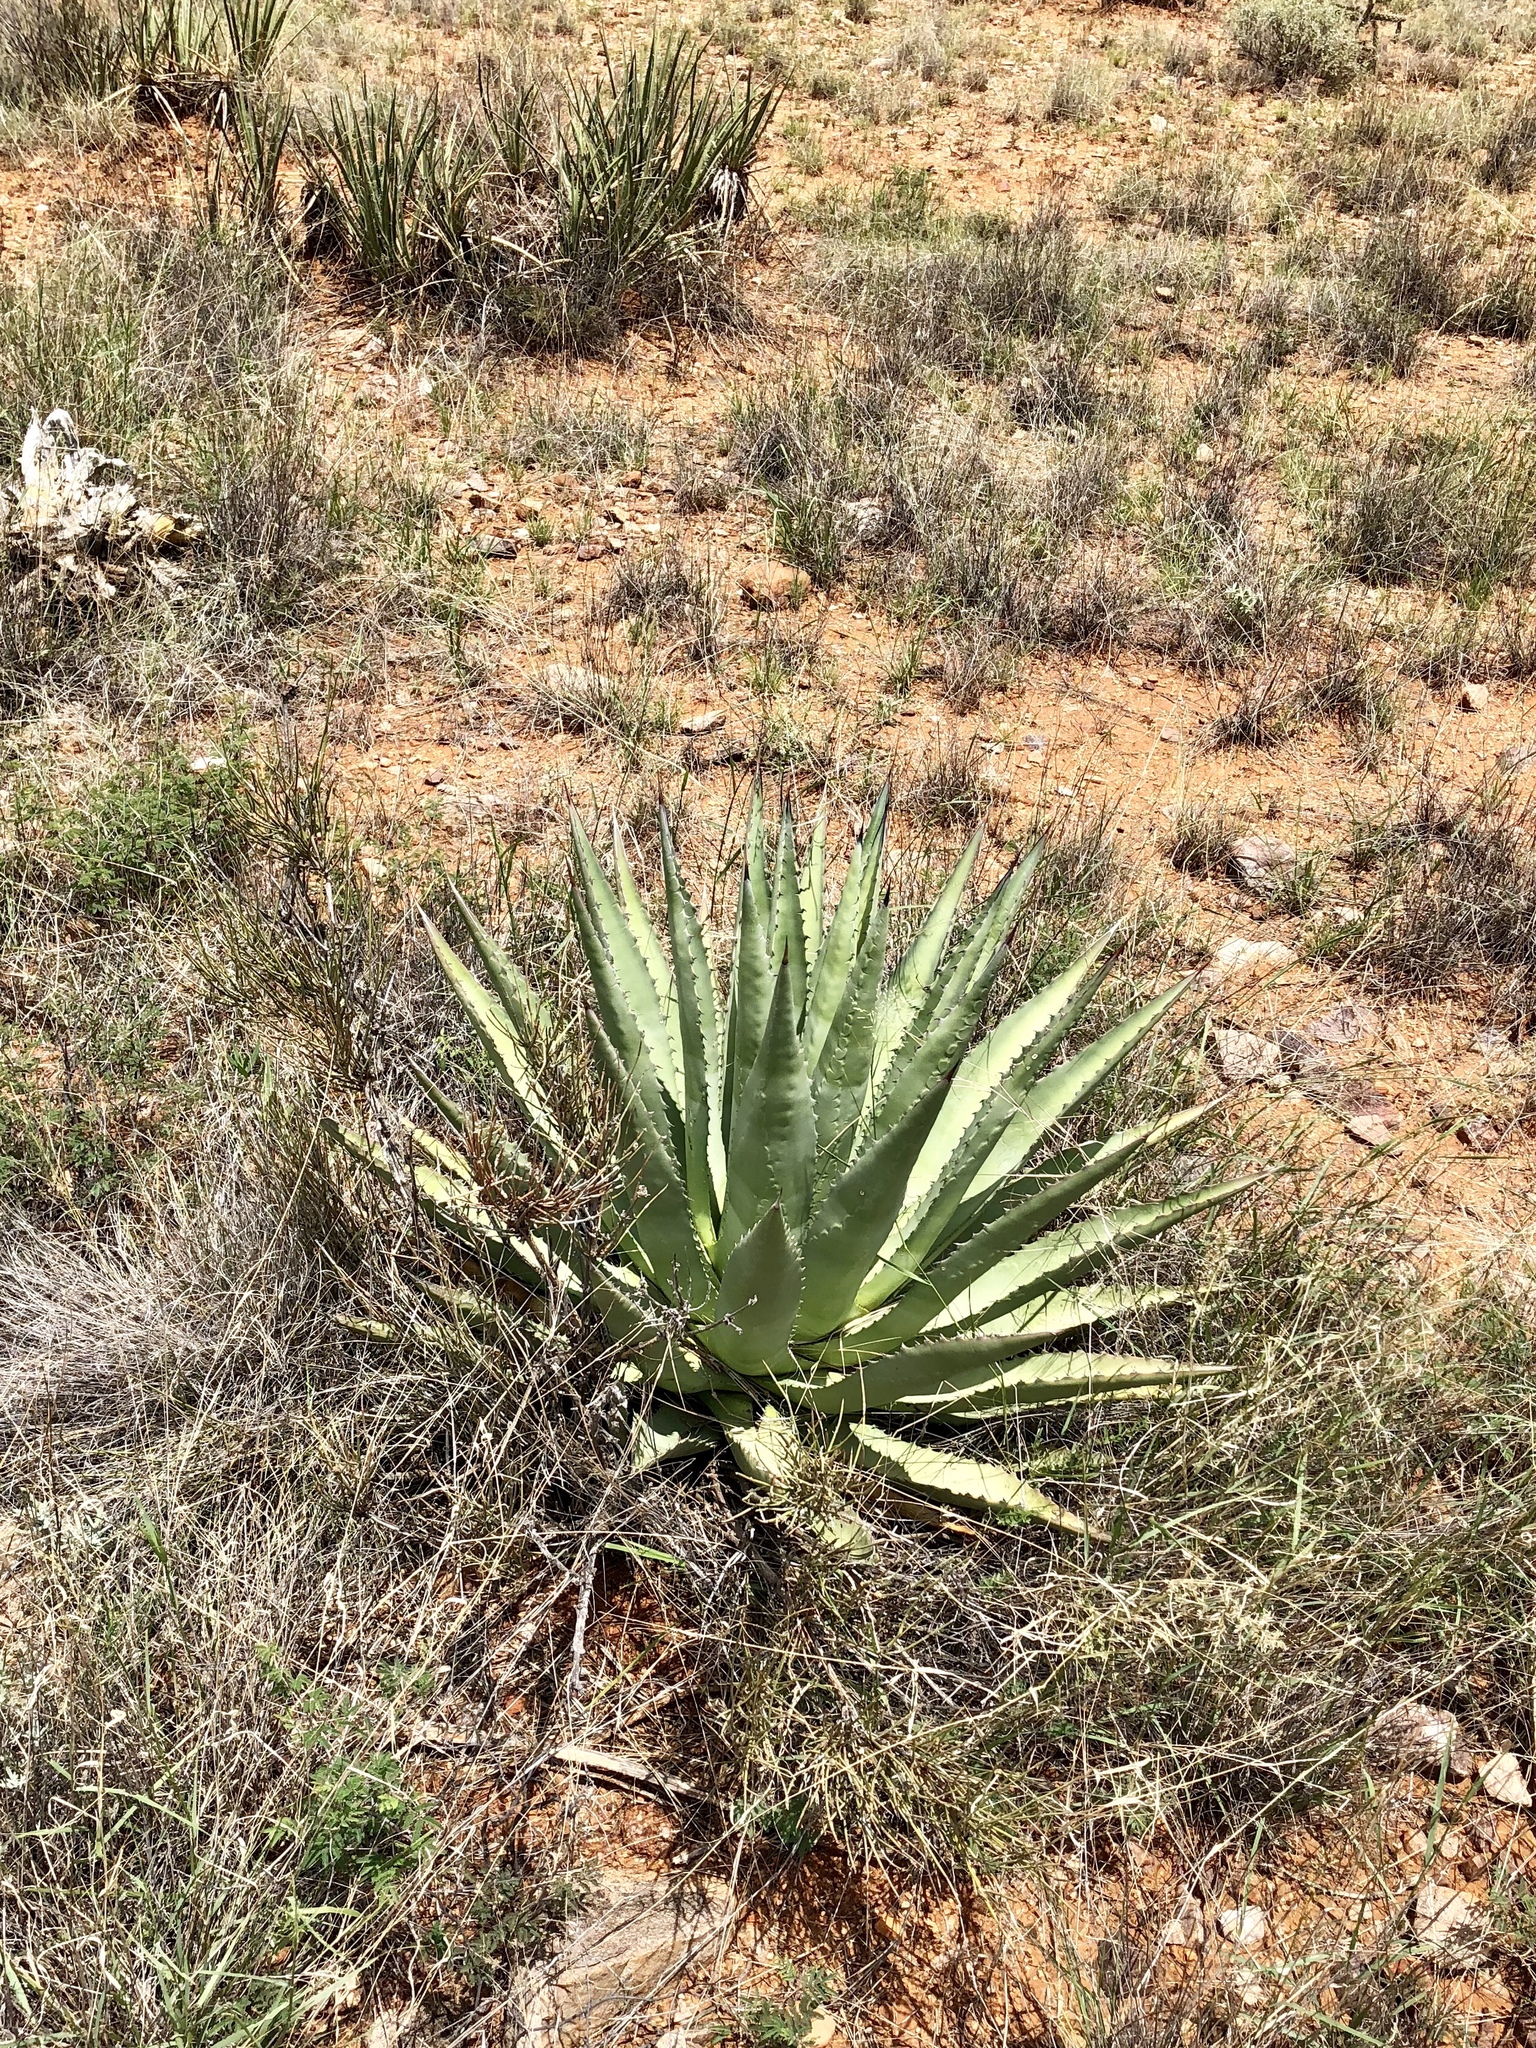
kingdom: Plantae
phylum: Tracheophyta
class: Liliopsida
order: Asparagales
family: Asparagaceae
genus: Agave
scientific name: Agave palmeri
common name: Palmer agave
